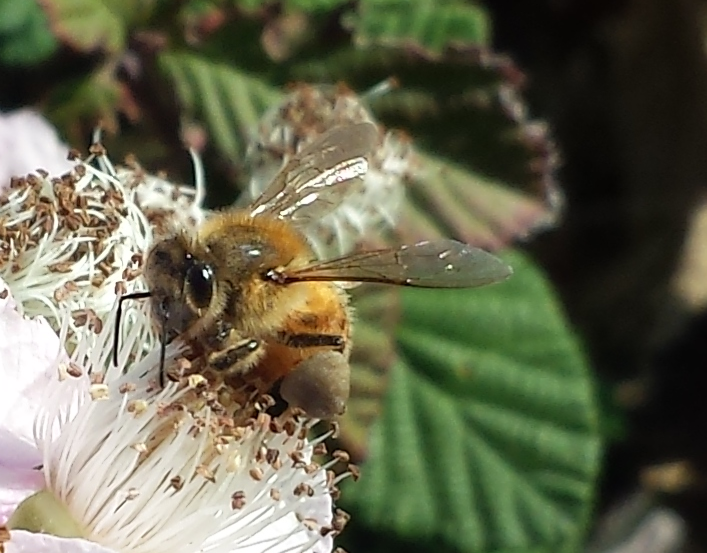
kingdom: Animalia
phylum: Arthropoda
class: Insecta
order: Hymenoptera
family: Apidae
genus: Apis
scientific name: Apis mellifera
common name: Honey bee
